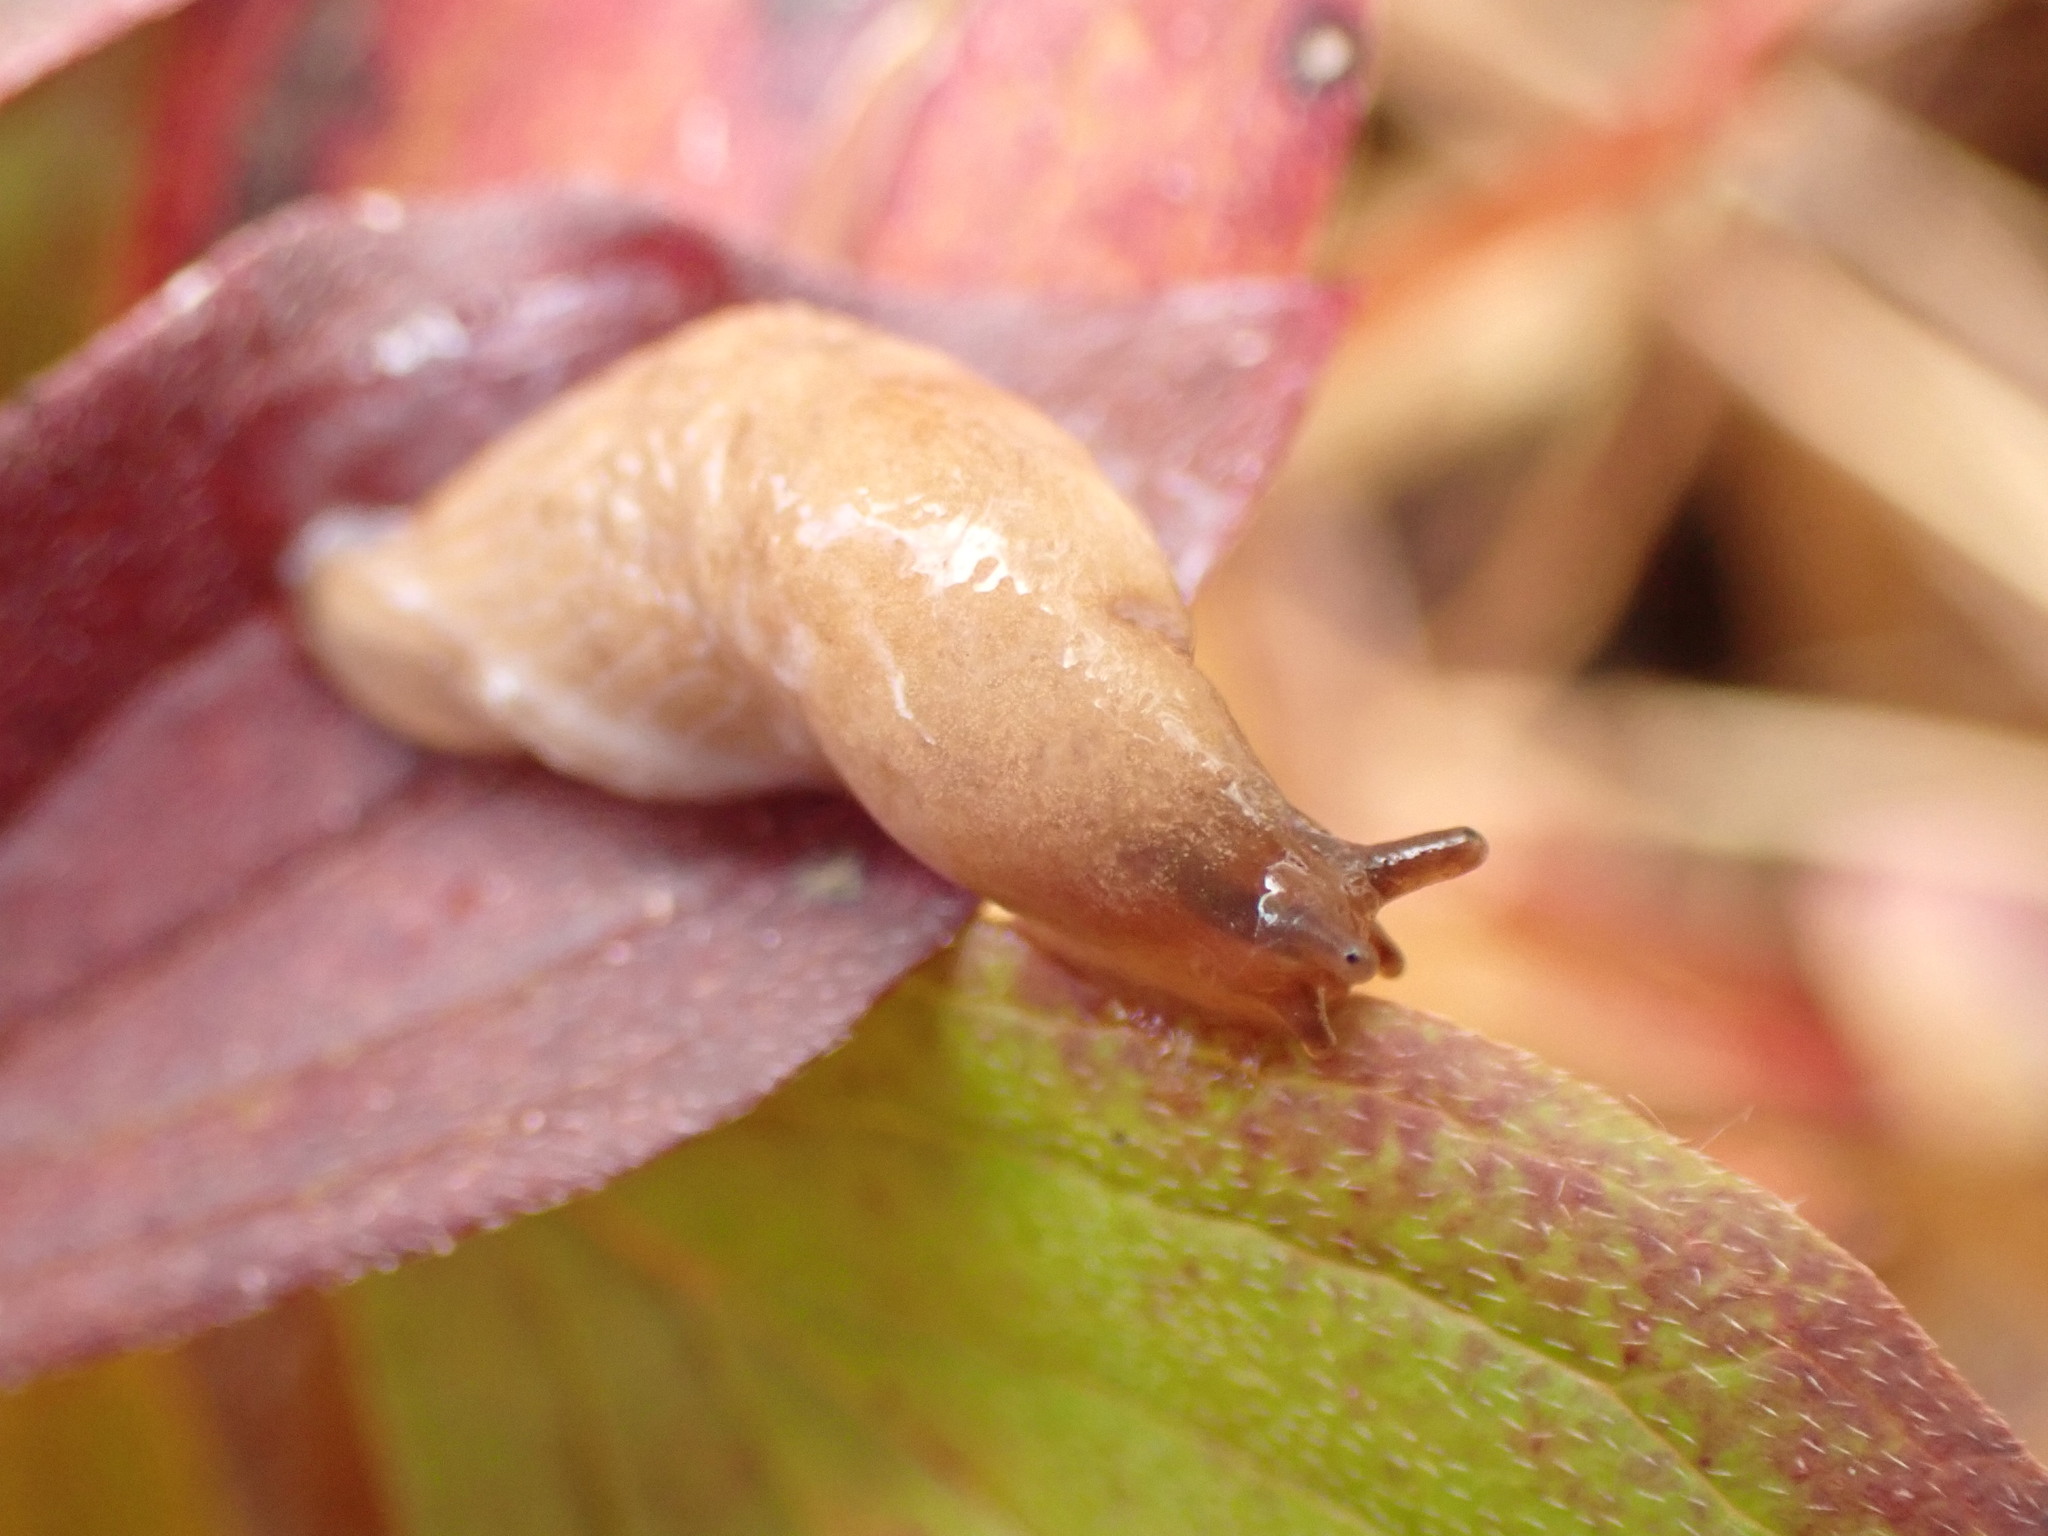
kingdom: Animalia
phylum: Mollusca
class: Gastropoda
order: Stylommatophora
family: Agriolimacidae
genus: Deroceras
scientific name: Deroceras agreste
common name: Field slug
